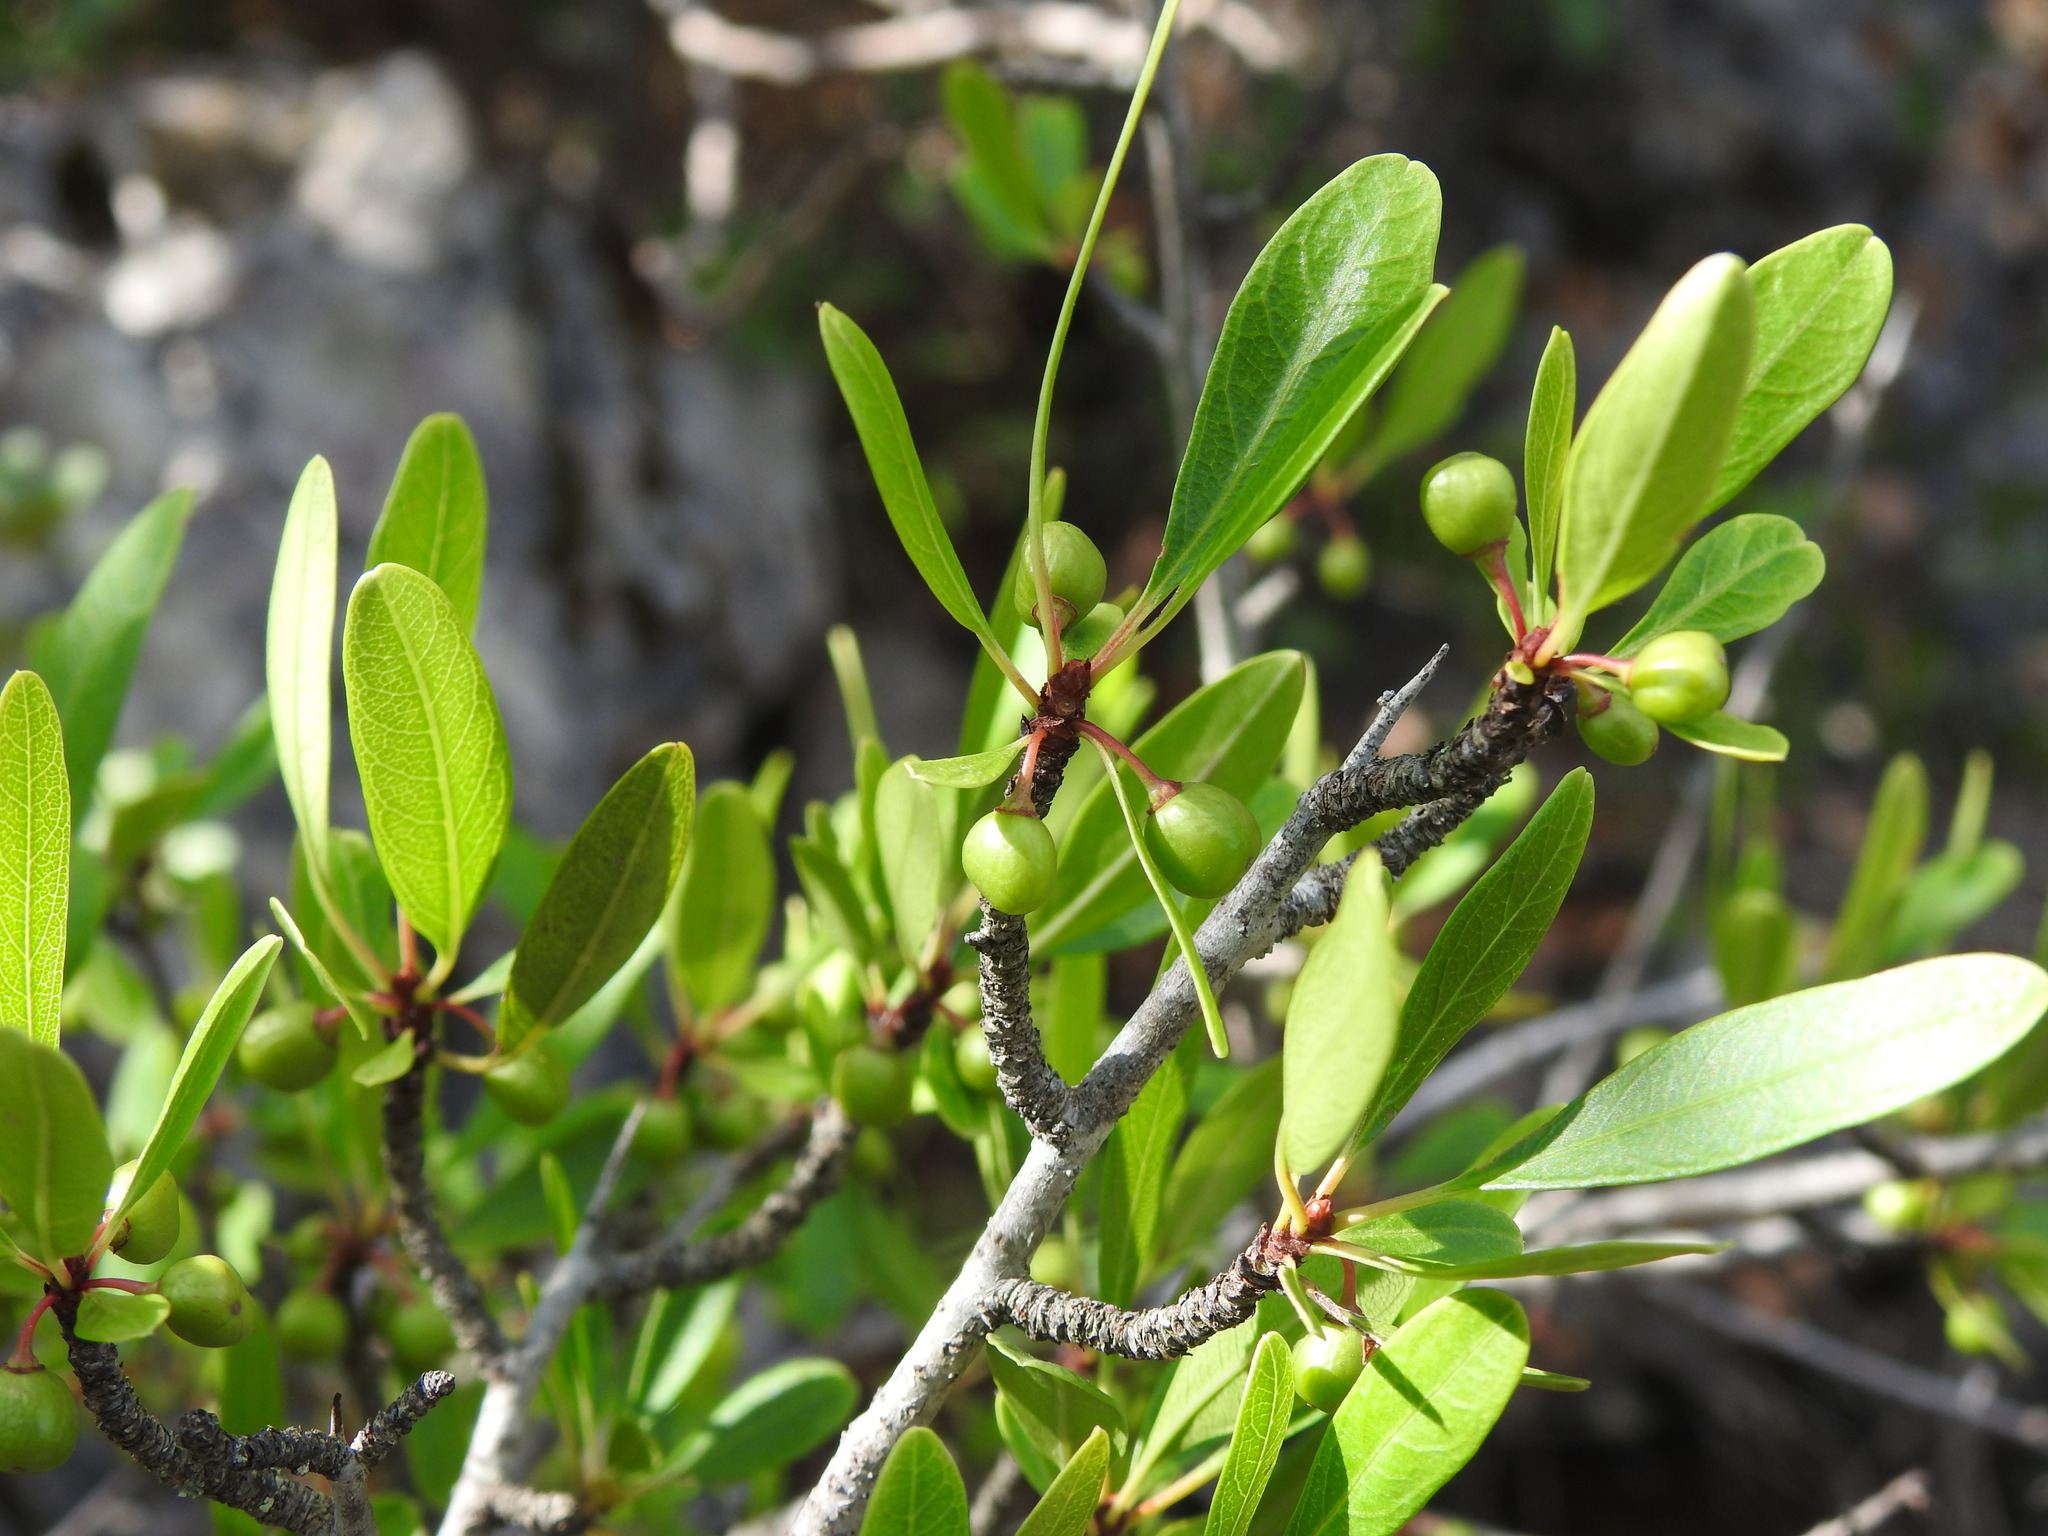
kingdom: Plantae
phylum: Tracheophyta
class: Magnoliopsida
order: Rosales
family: Rhamnaceae
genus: Rhamnus
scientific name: Rhamnus oleoides
